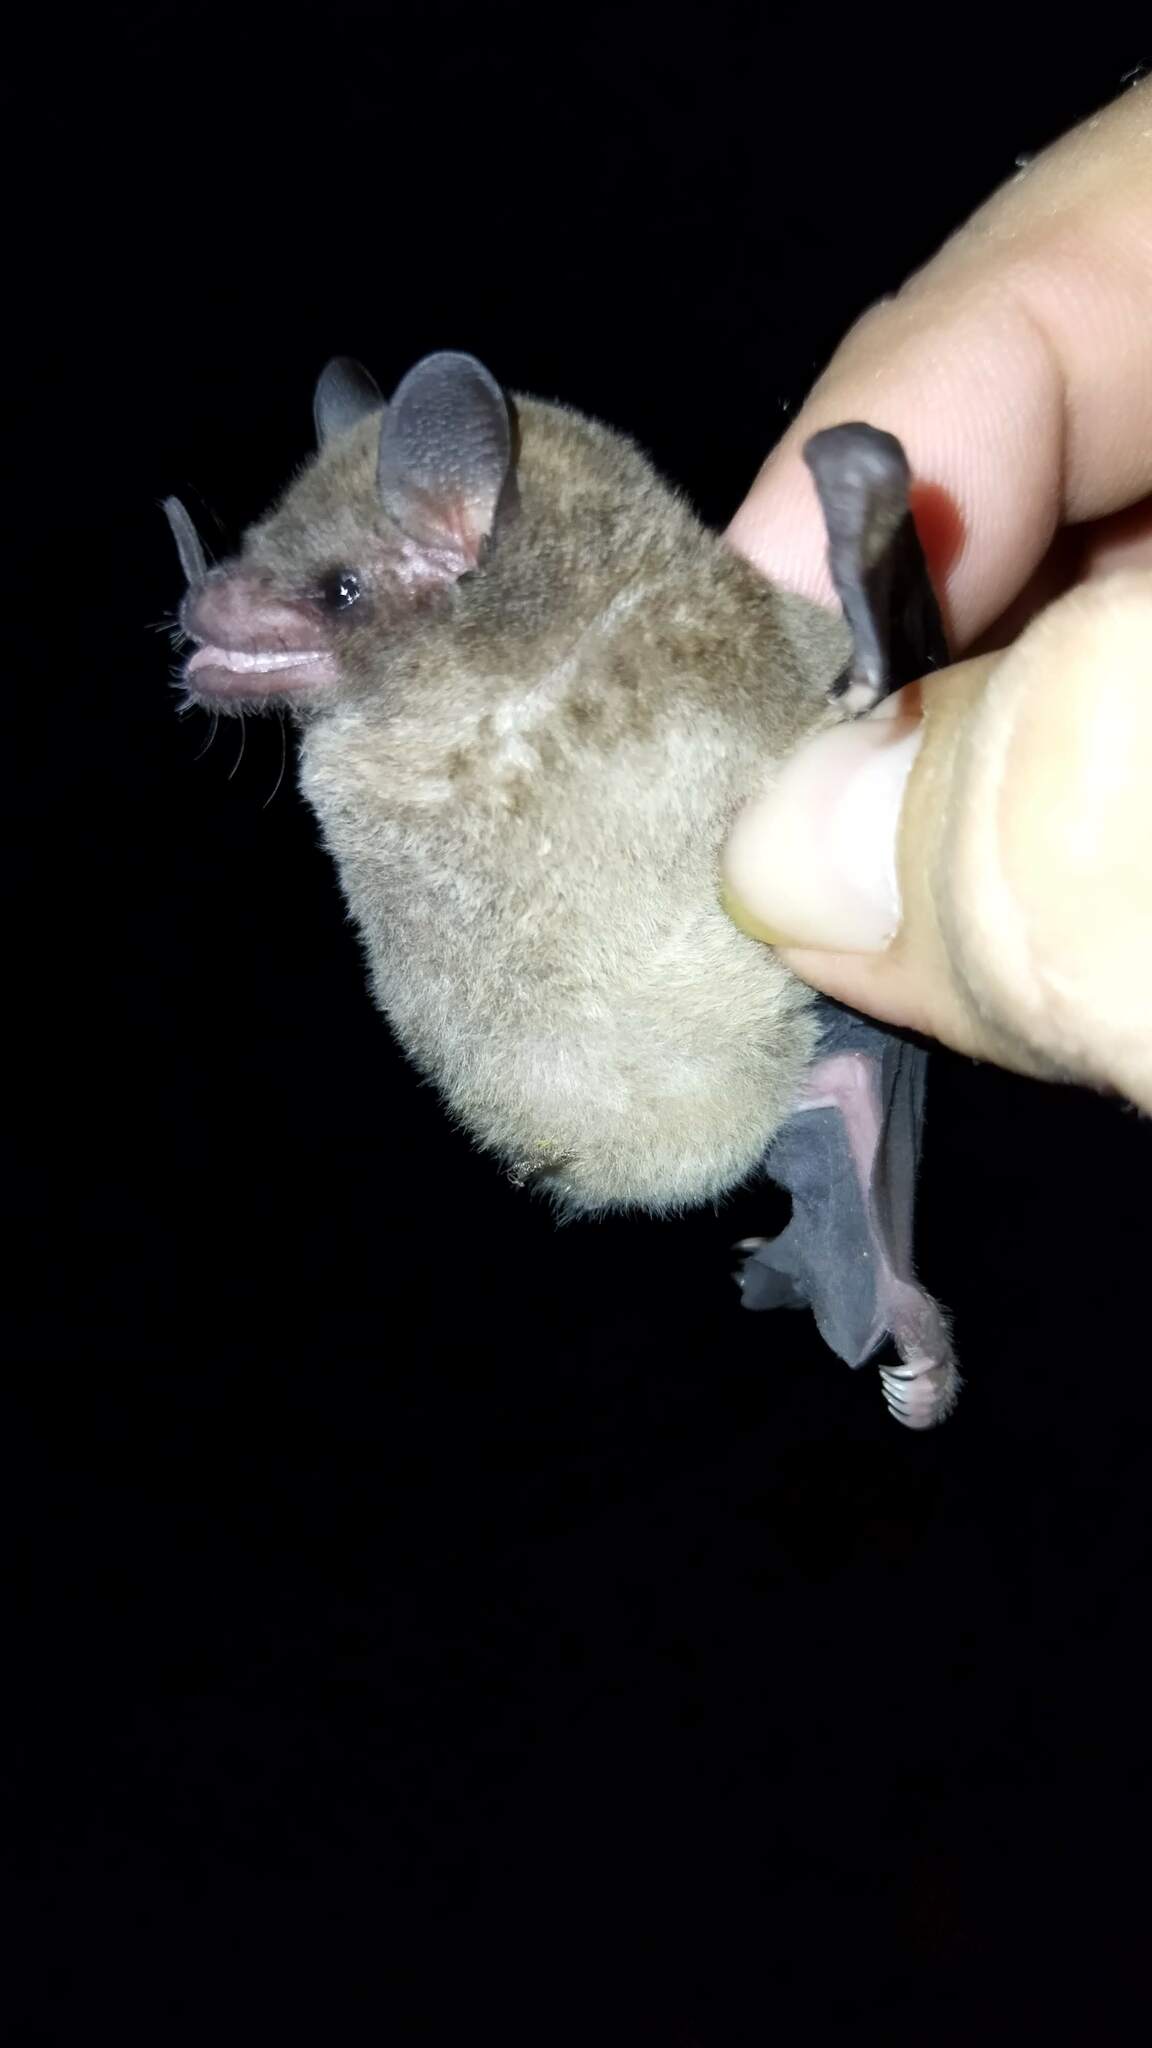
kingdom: Animalia
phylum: Chordata
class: Mammalia
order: Chiroptera
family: Phyllostomidae
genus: Glossophaga
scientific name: Glossophaga soricina
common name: Pallas's long-tongued bat
